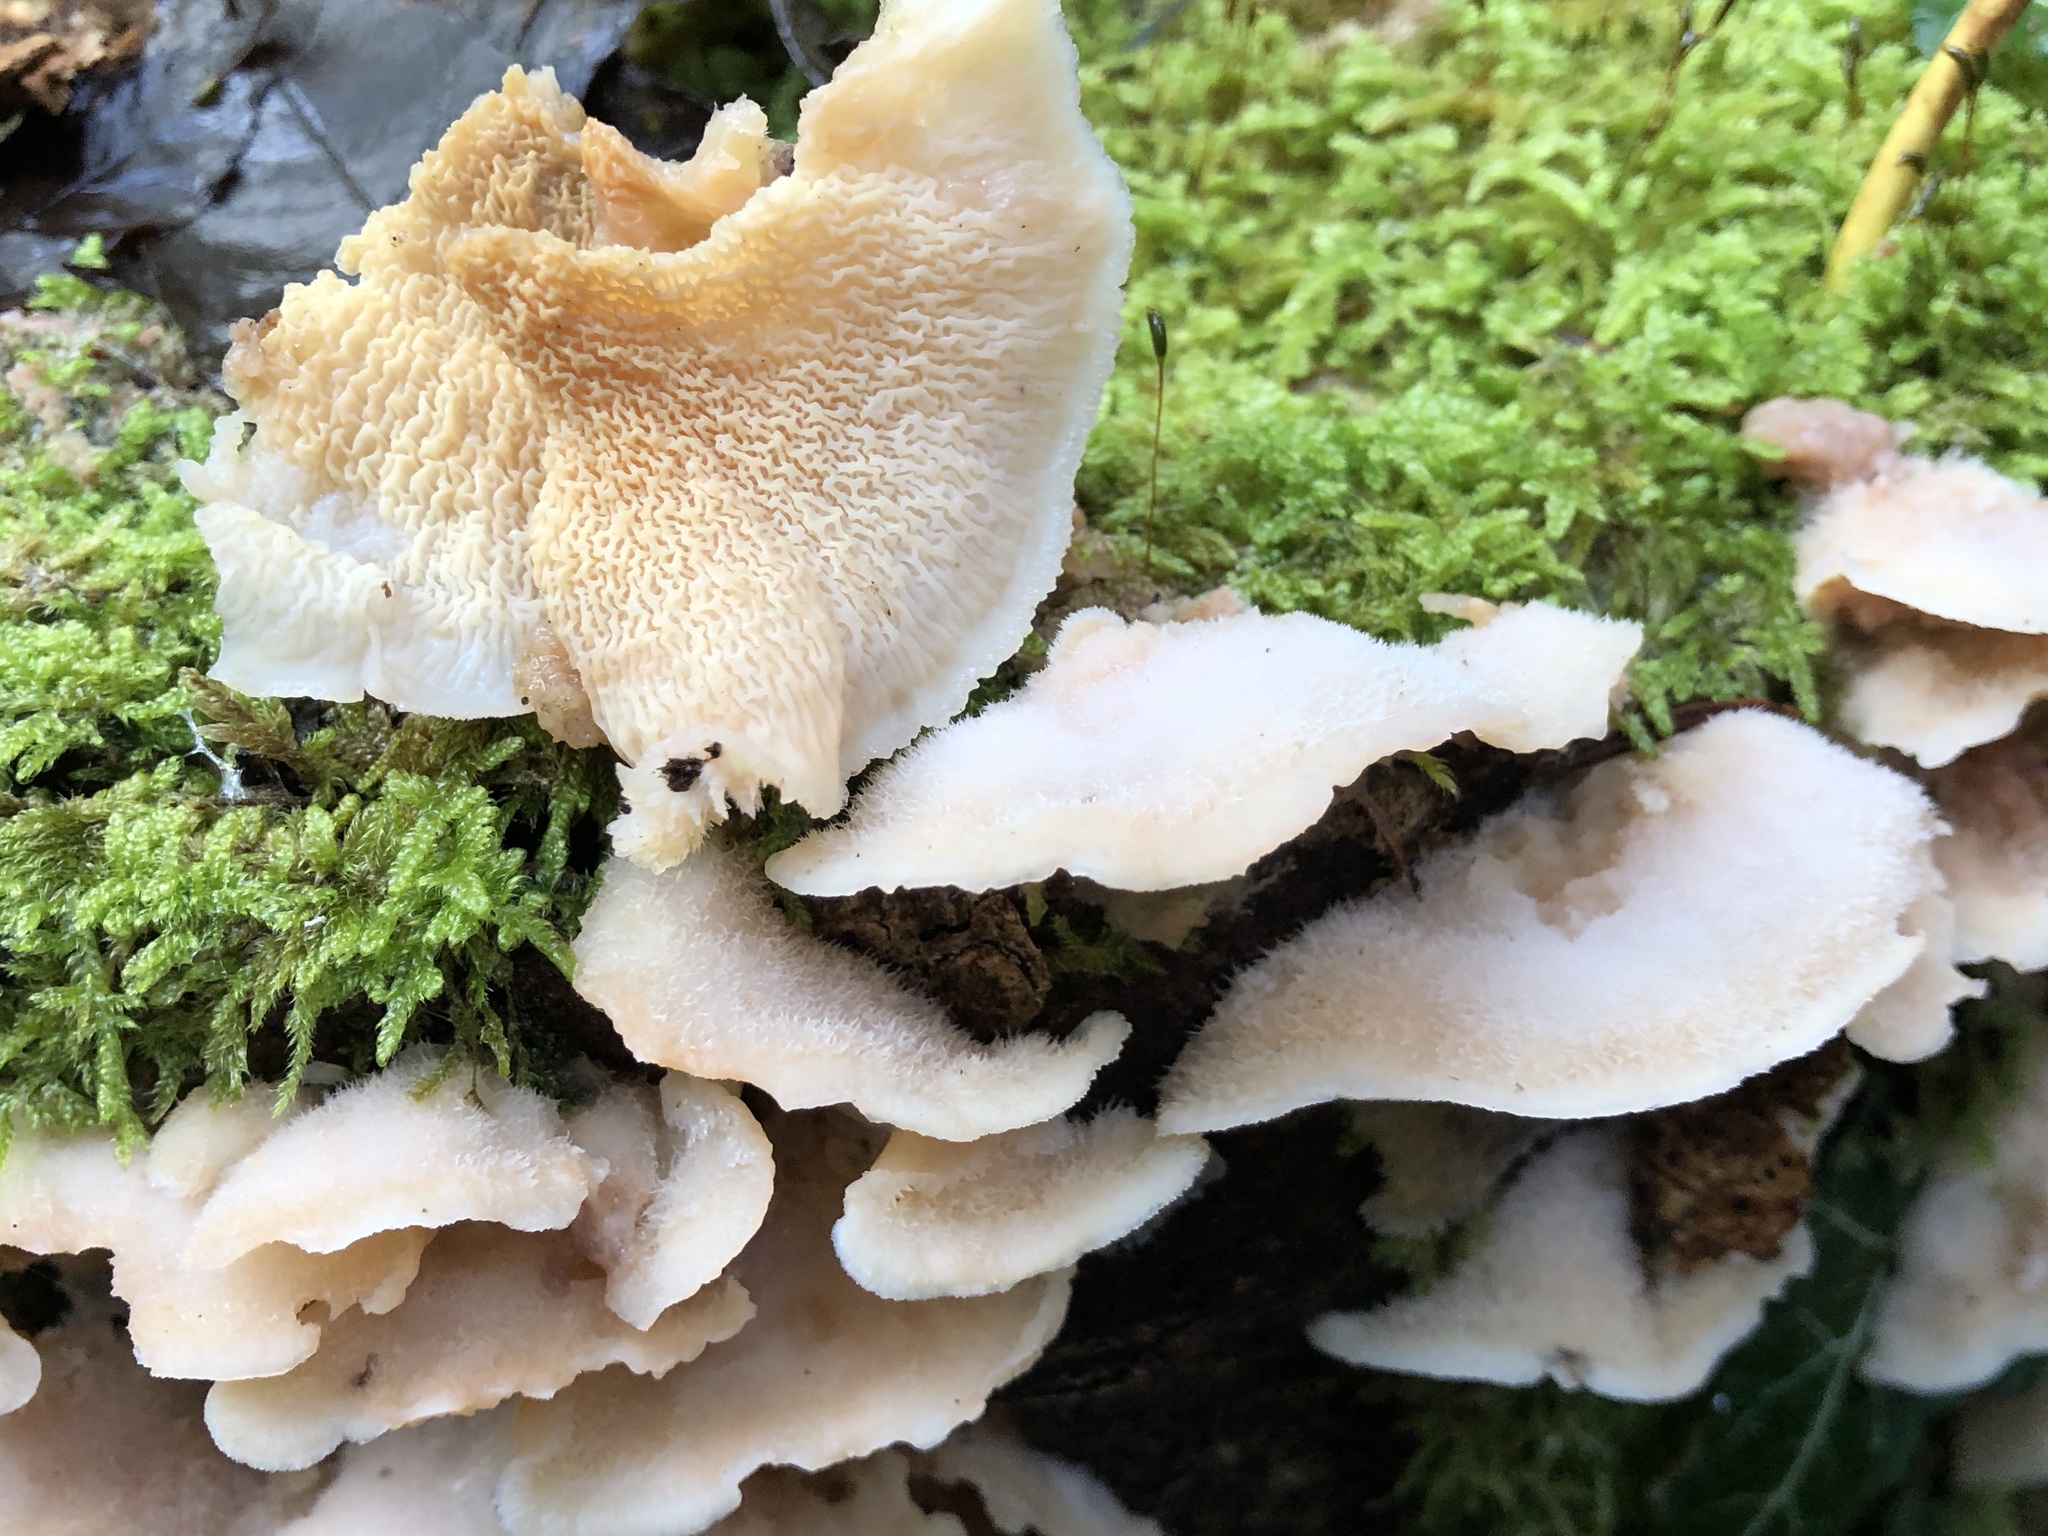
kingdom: Fungi
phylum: Basidiomycota
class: Agaricomycetes
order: Polyporales
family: Meruliaceae
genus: Phlebia
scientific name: Phlebia tremellosa
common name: Jelly rot
